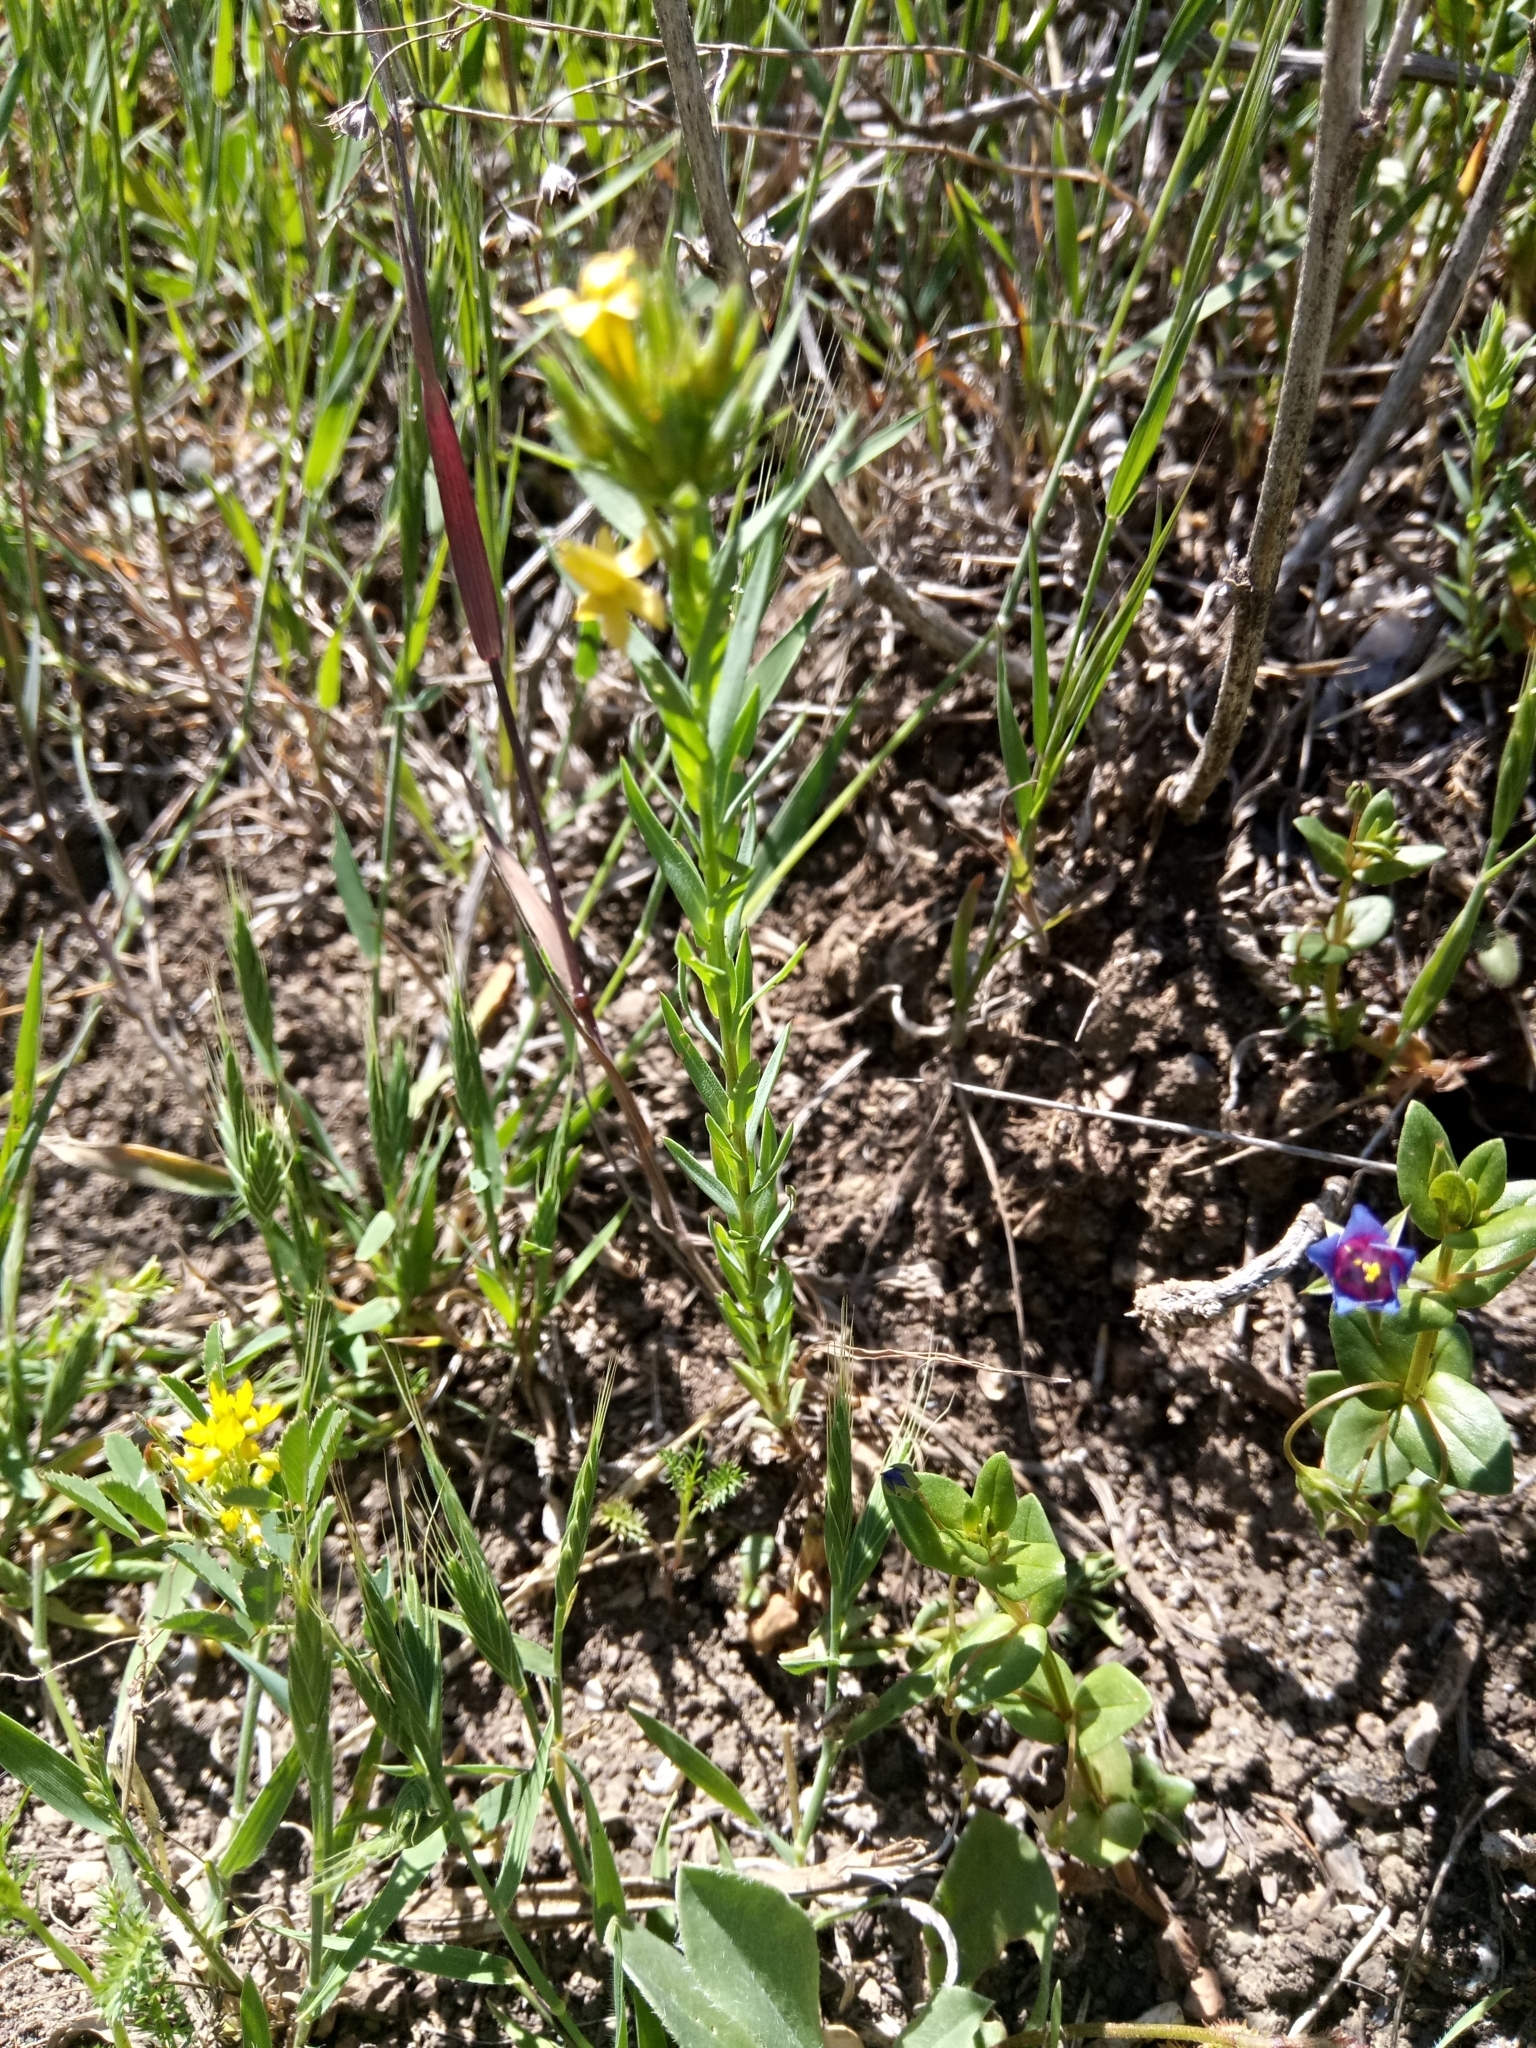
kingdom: Plantae
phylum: Tracheophyta
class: Magnoliopsida
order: Malpighiales
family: Linaceae
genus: Linum
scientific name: Linum strictum
